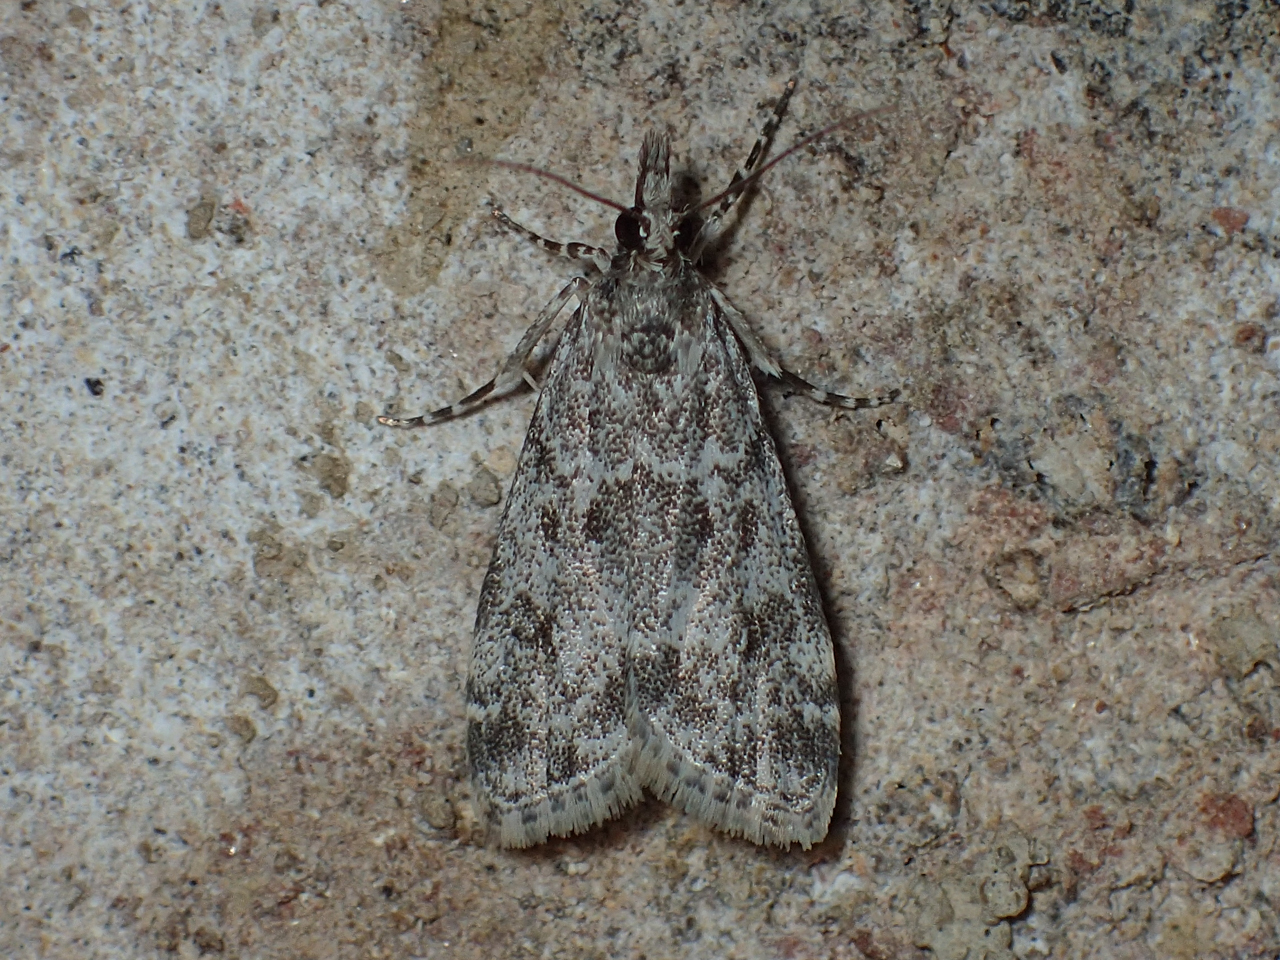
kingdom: Animalia
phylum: Arthropoda
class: Insecta
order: Lepidoptera
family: Crambidae
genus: Eudonia
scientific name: Eudonia heterosalis
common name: Mcdunnough's eudonia
